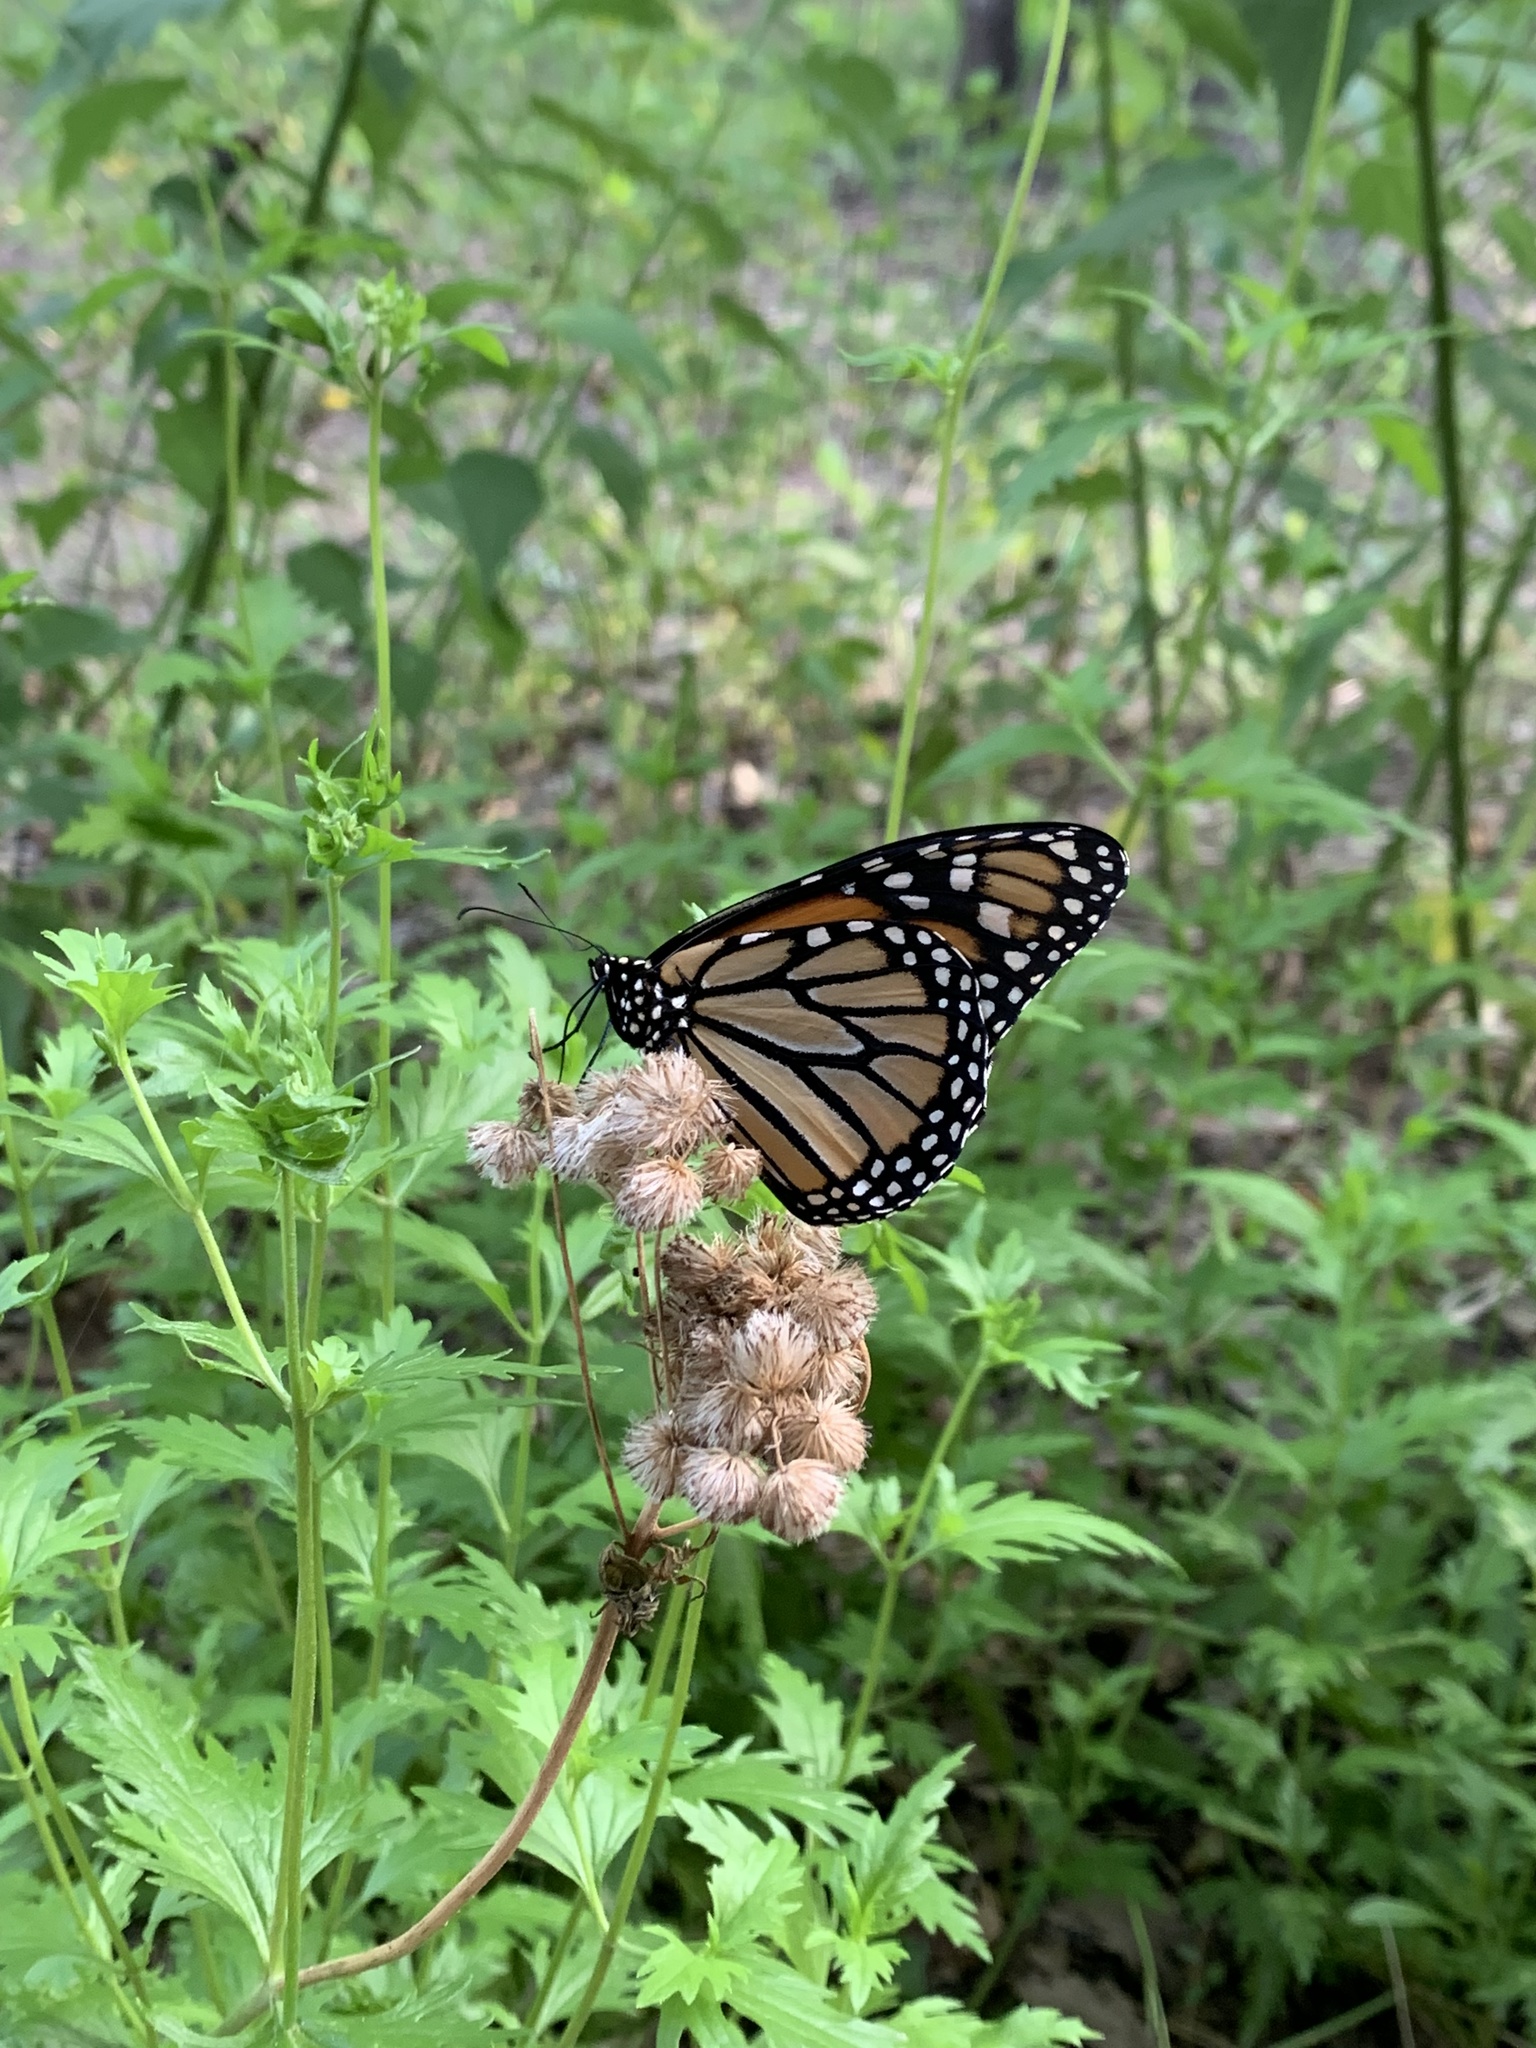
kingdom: Animalia
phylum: Arthropoda
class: Insecta
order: Lepidoptera
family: Nymphalidae
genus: Danaus
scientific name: Danaus plexippus
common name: Monarch
